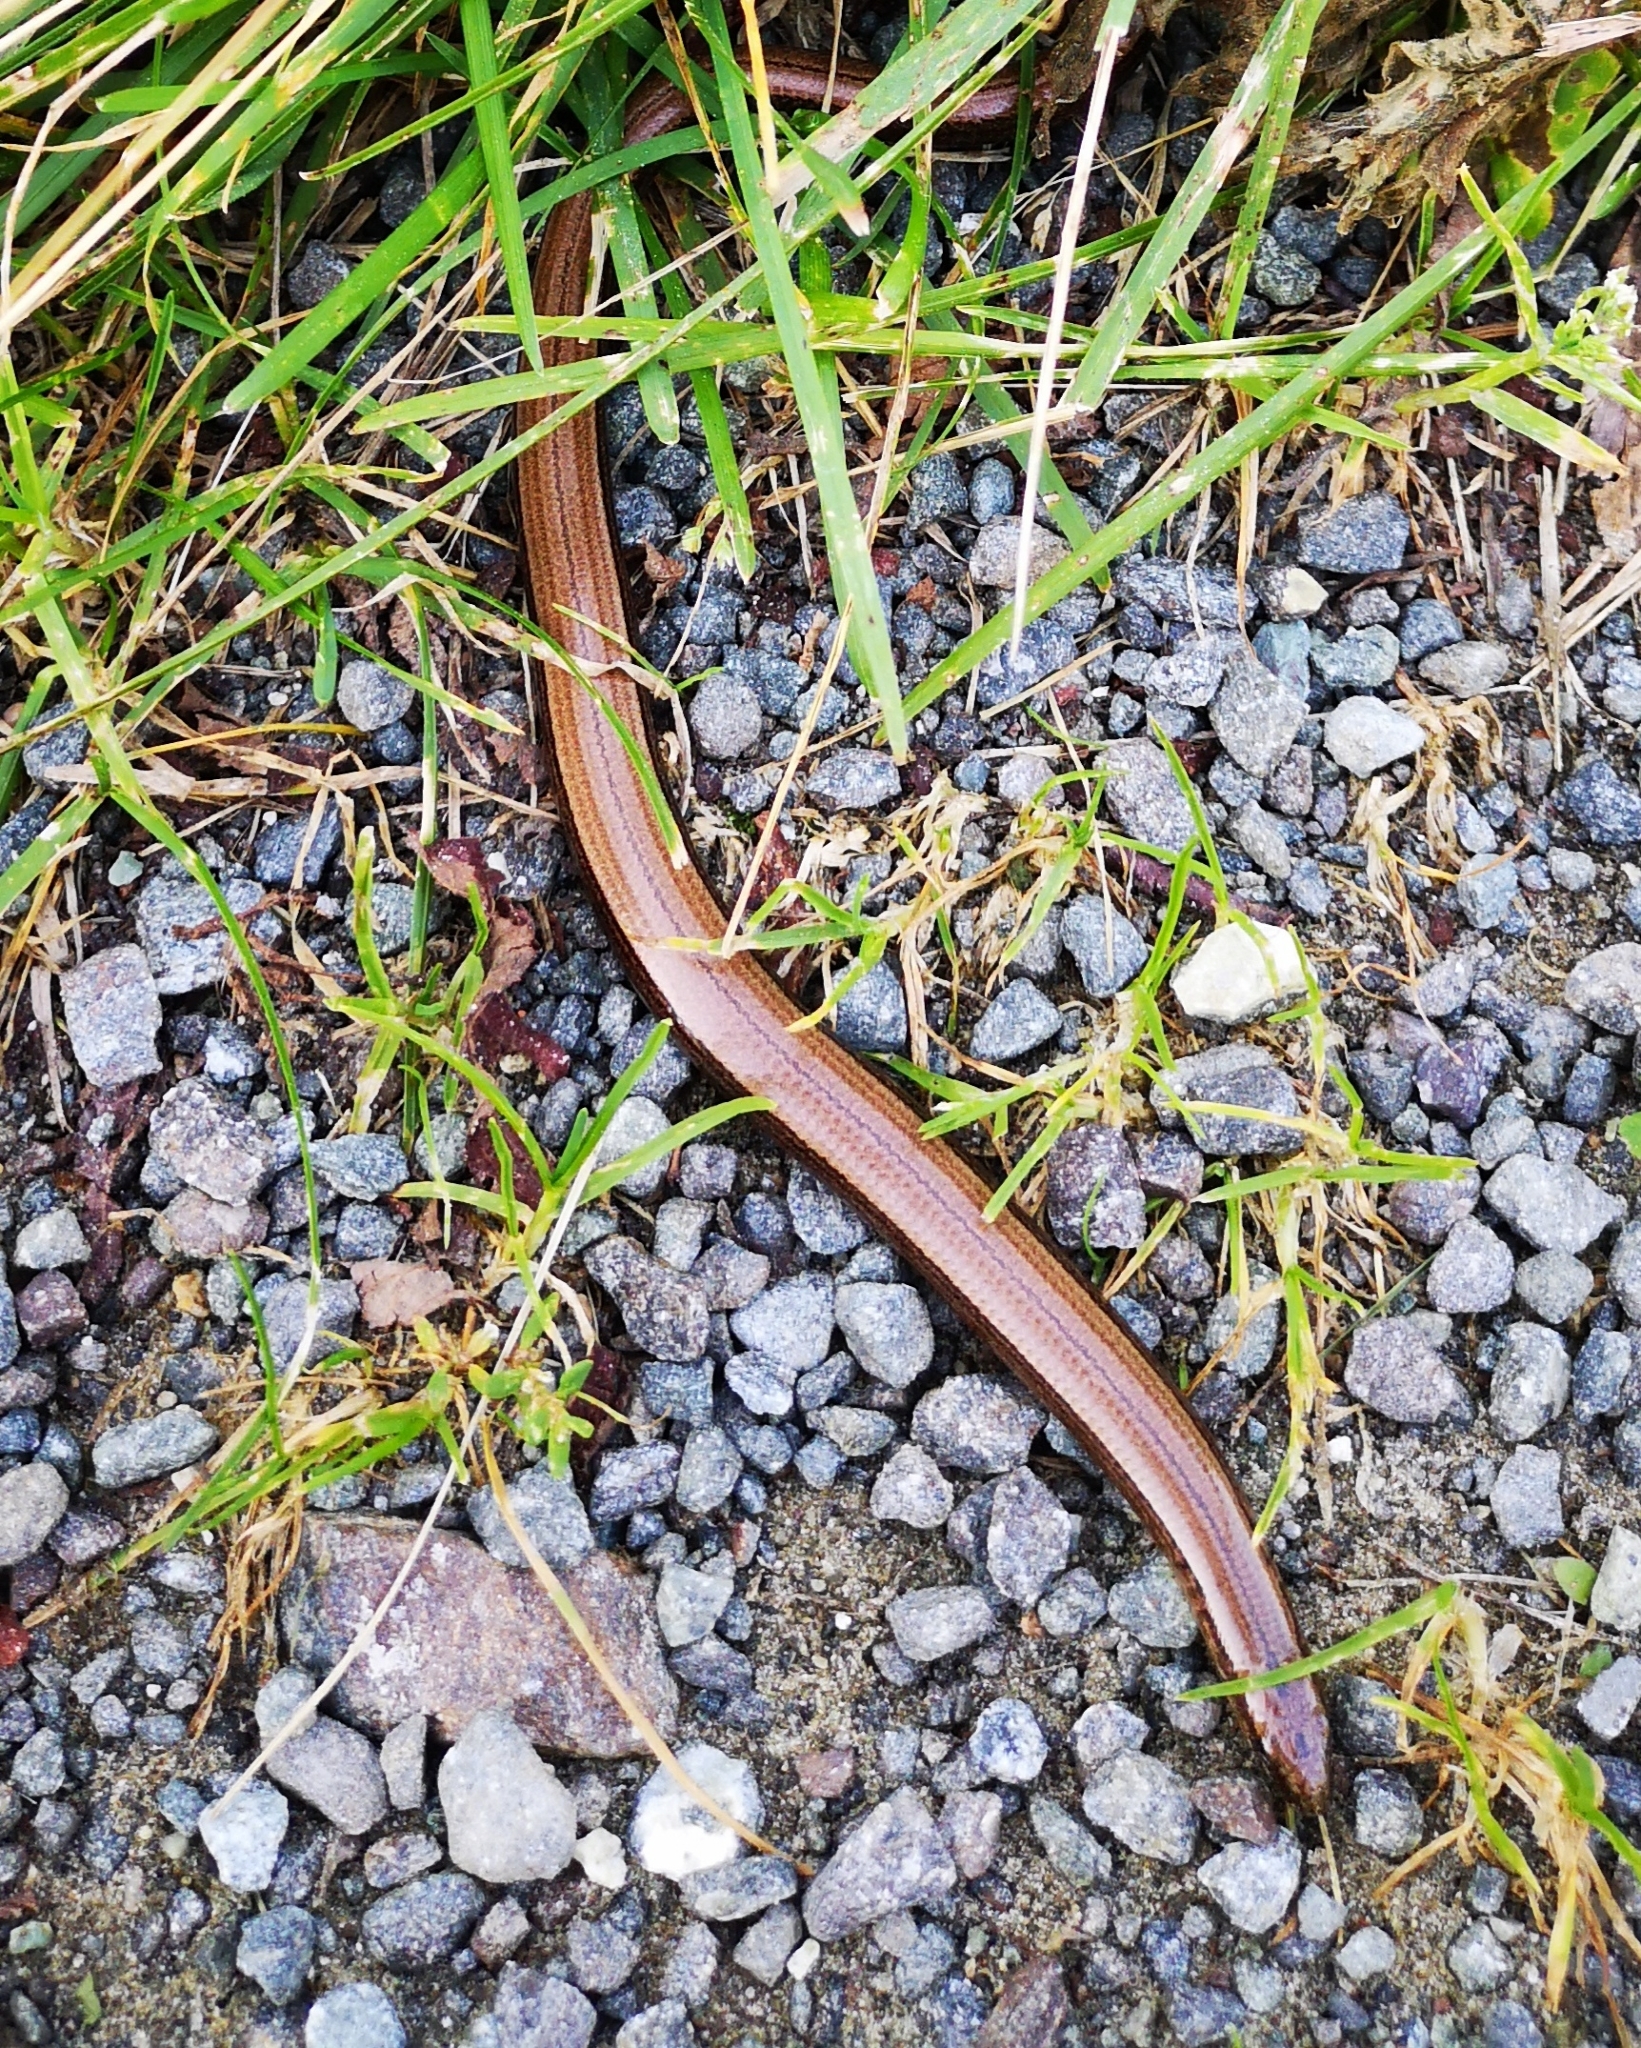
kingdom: Animalia
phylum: Chordata
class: Squamata
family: Anguidae
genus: Anguis
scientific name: Anguis fragilis
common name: Slow worm
